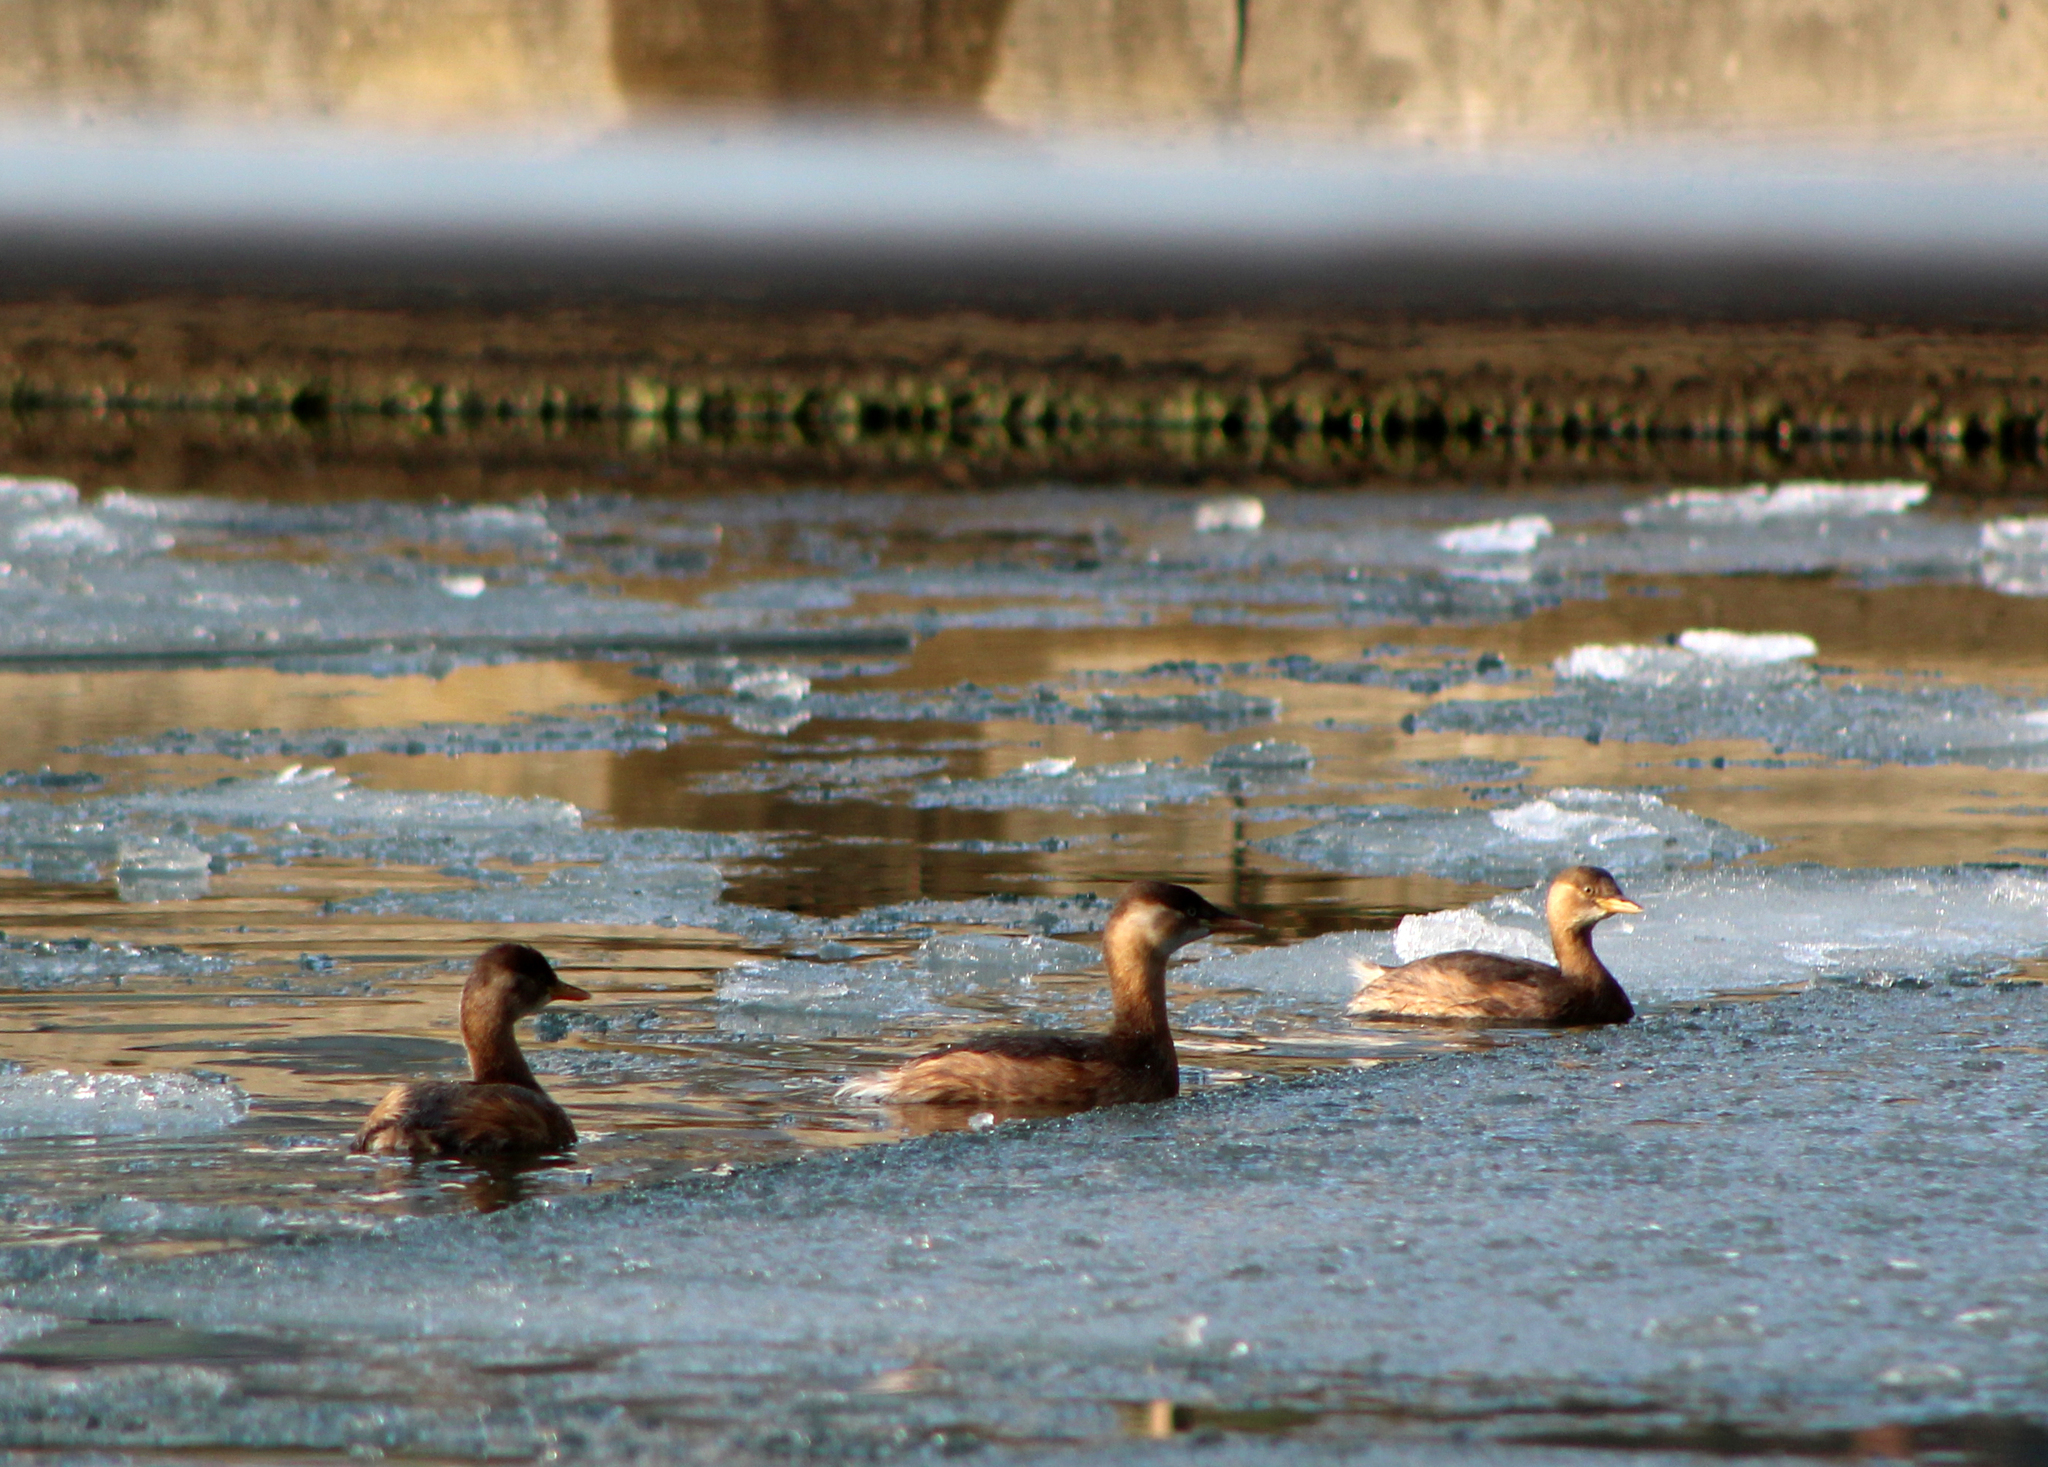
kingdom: Animalia
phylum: Chordata
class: Aves
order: Podicipediformes
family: Podicipedidae
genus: Tachybaptus
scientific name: Tachybaptus ruficollis
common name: Little grebe
